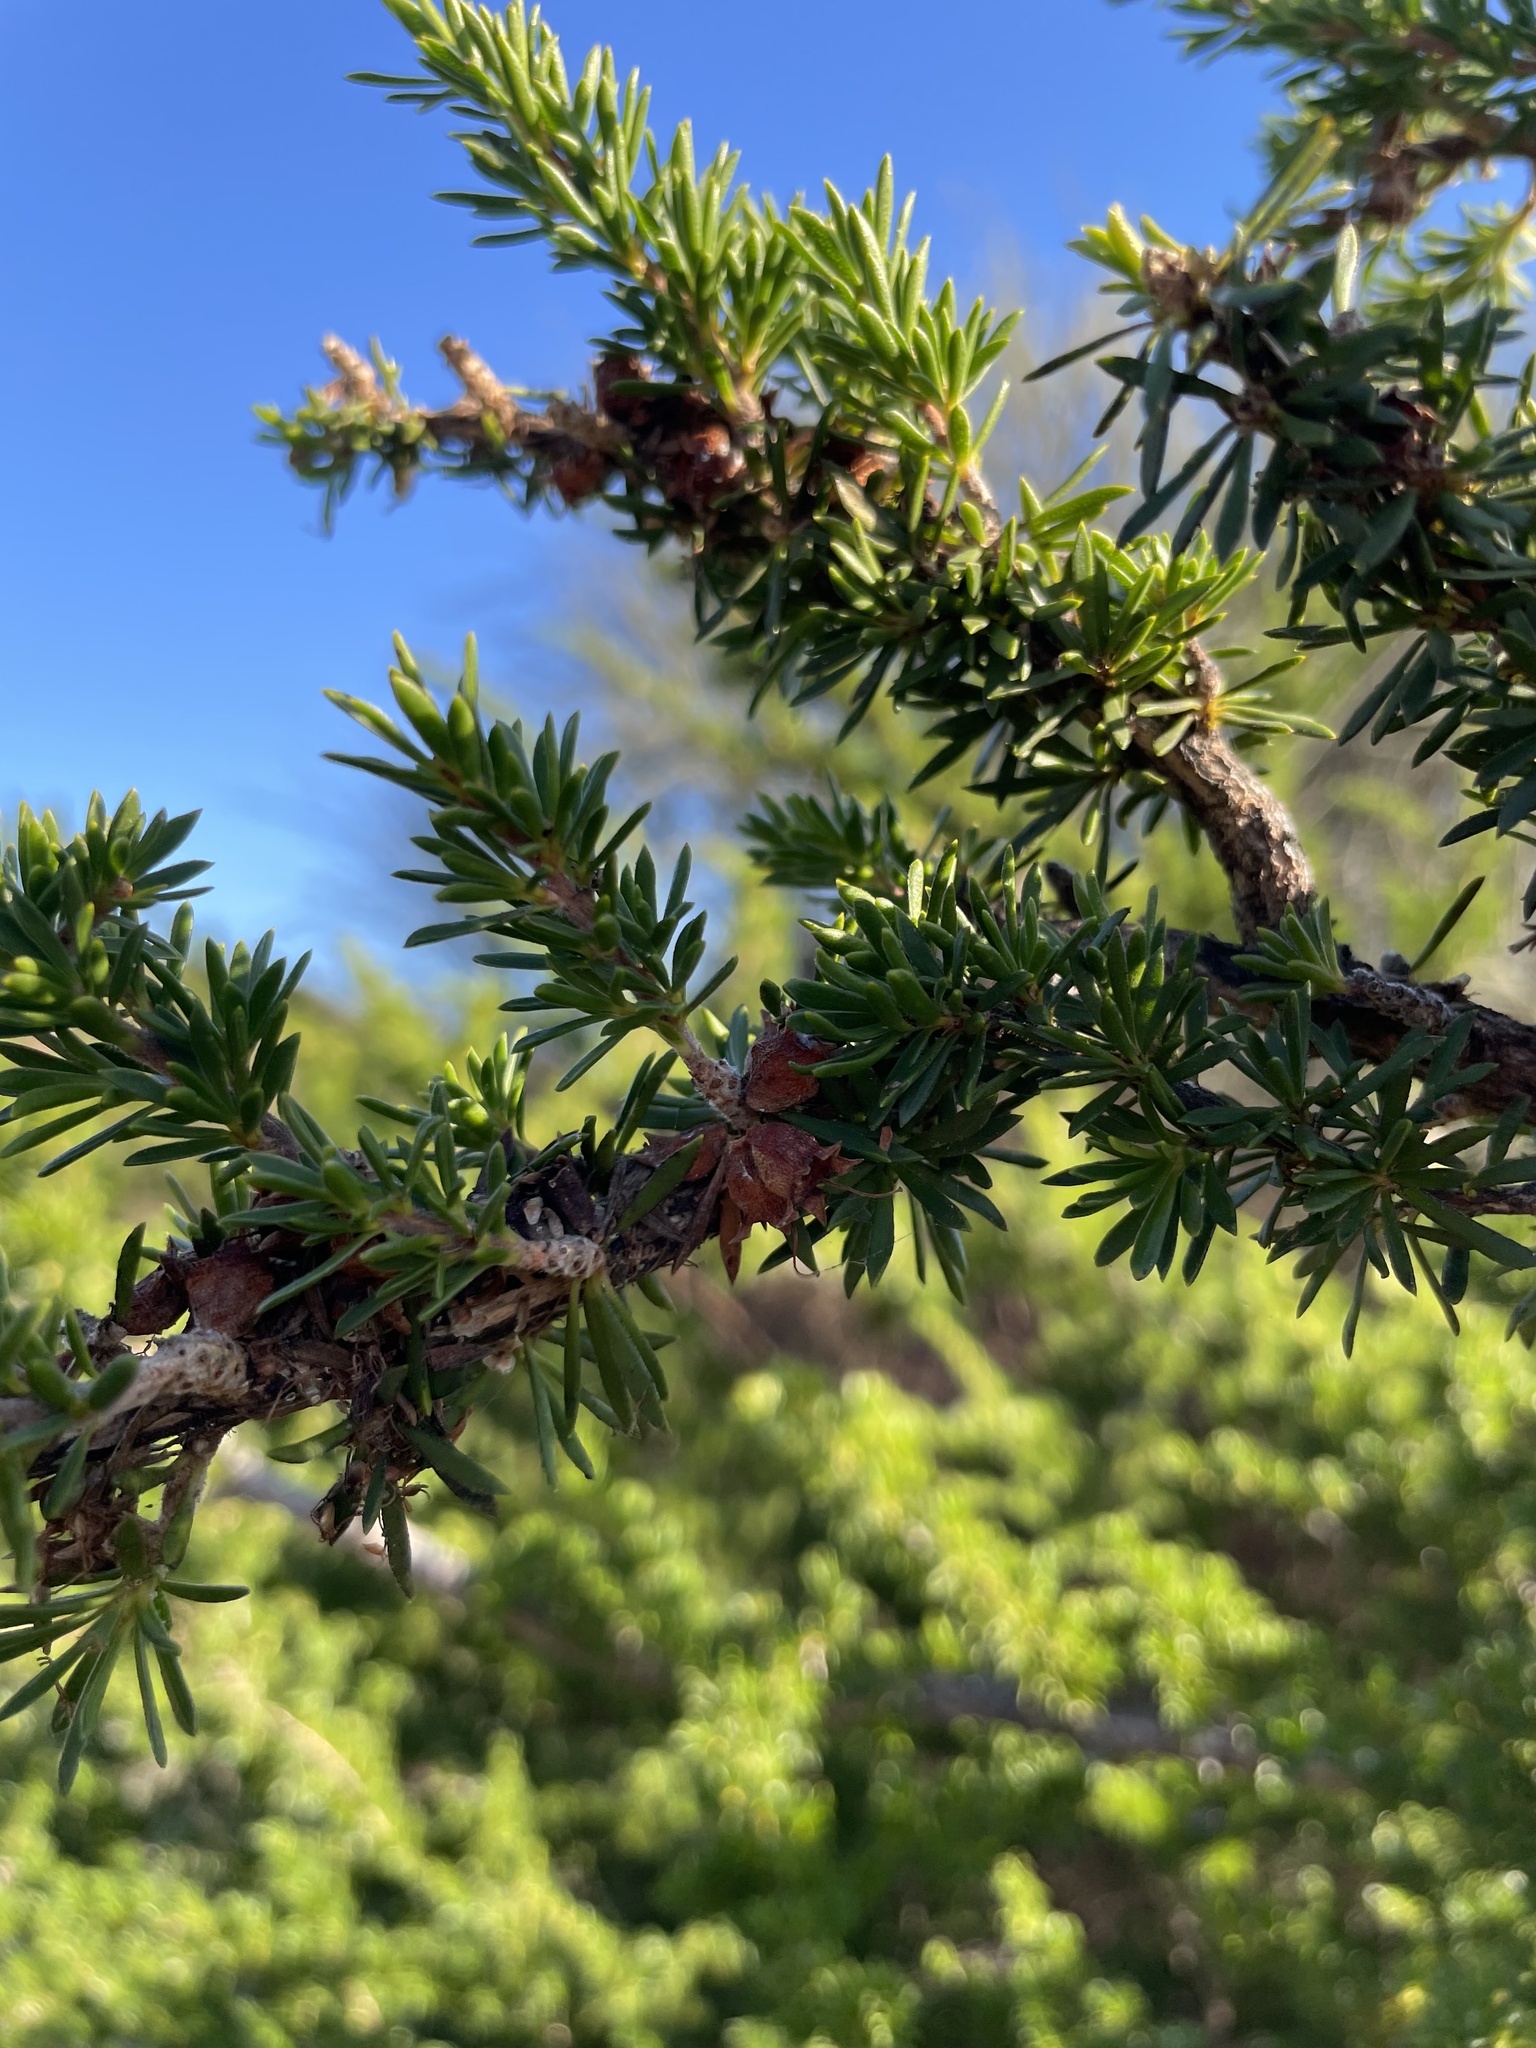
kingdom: Plantae
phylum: Tracheophyta
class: Magnoliopsida
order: Myrtales
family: Myrtaceae
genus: Kunzea
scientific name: Kunzea ambigua
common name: Tickbush
